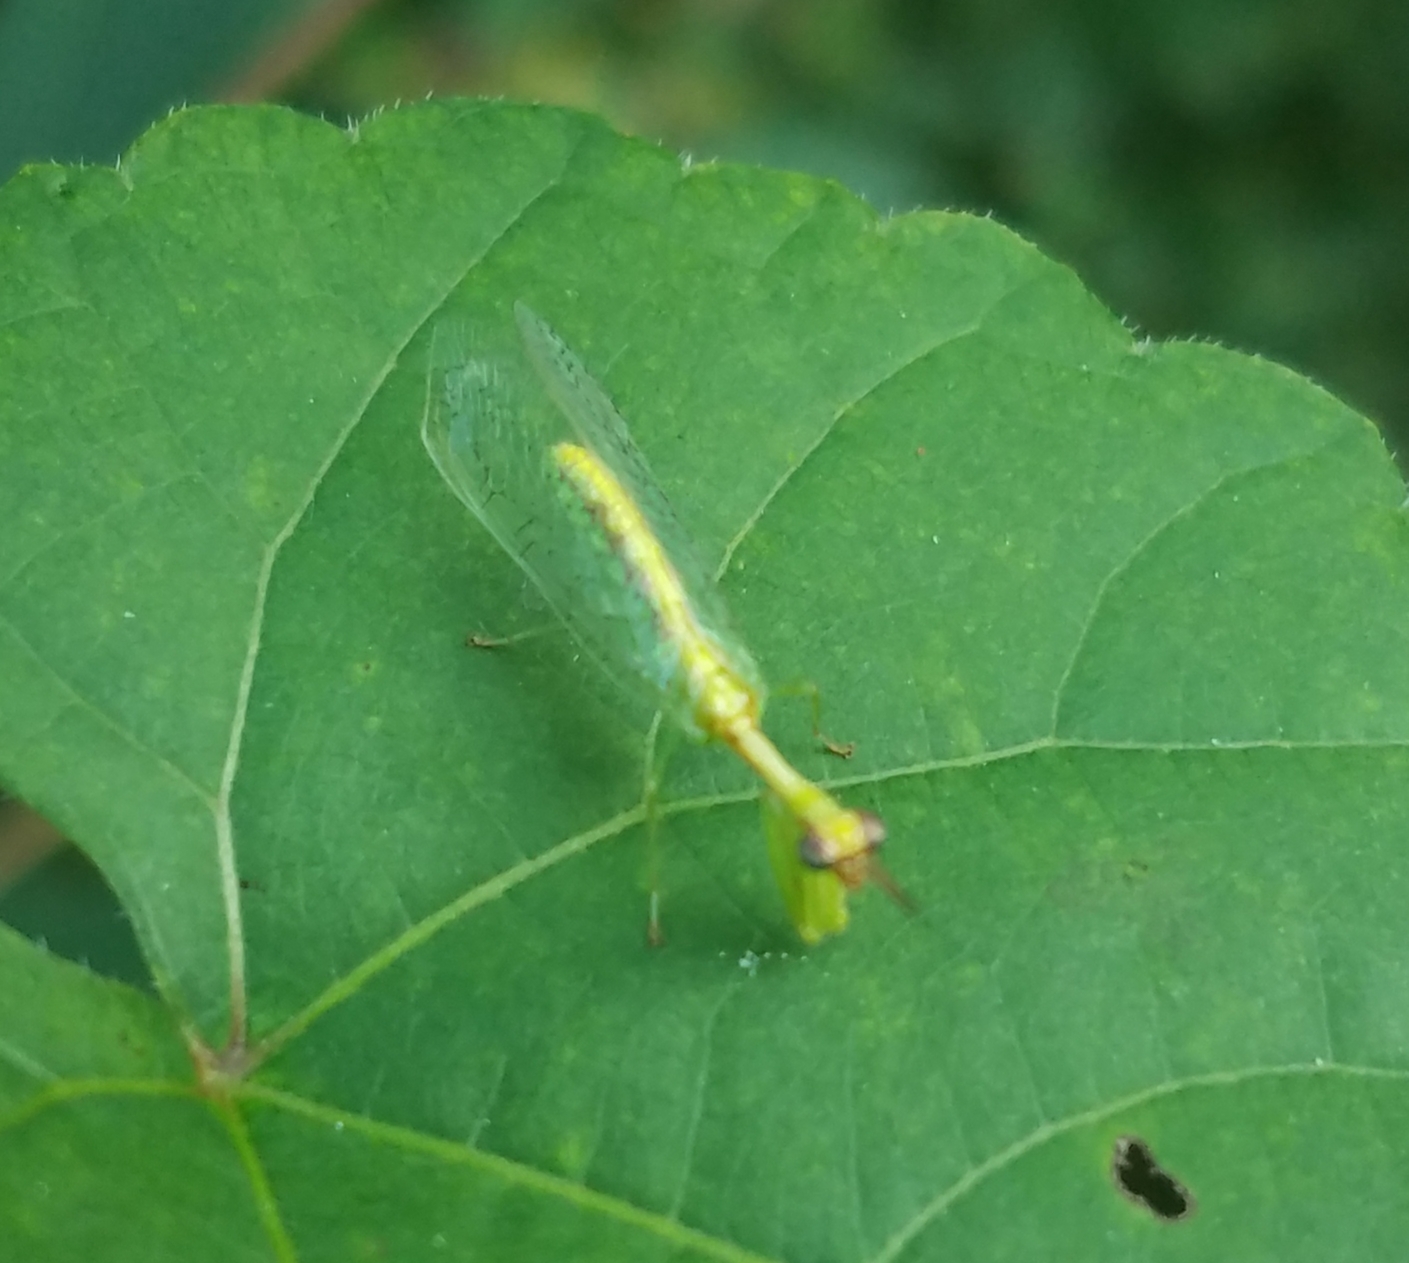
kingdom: Animalia
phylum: Arthropoda
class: Insecta
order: Neuroptera
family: Mantispidae
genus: Zeugomantispa
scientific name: Zeugomantispa minuta
